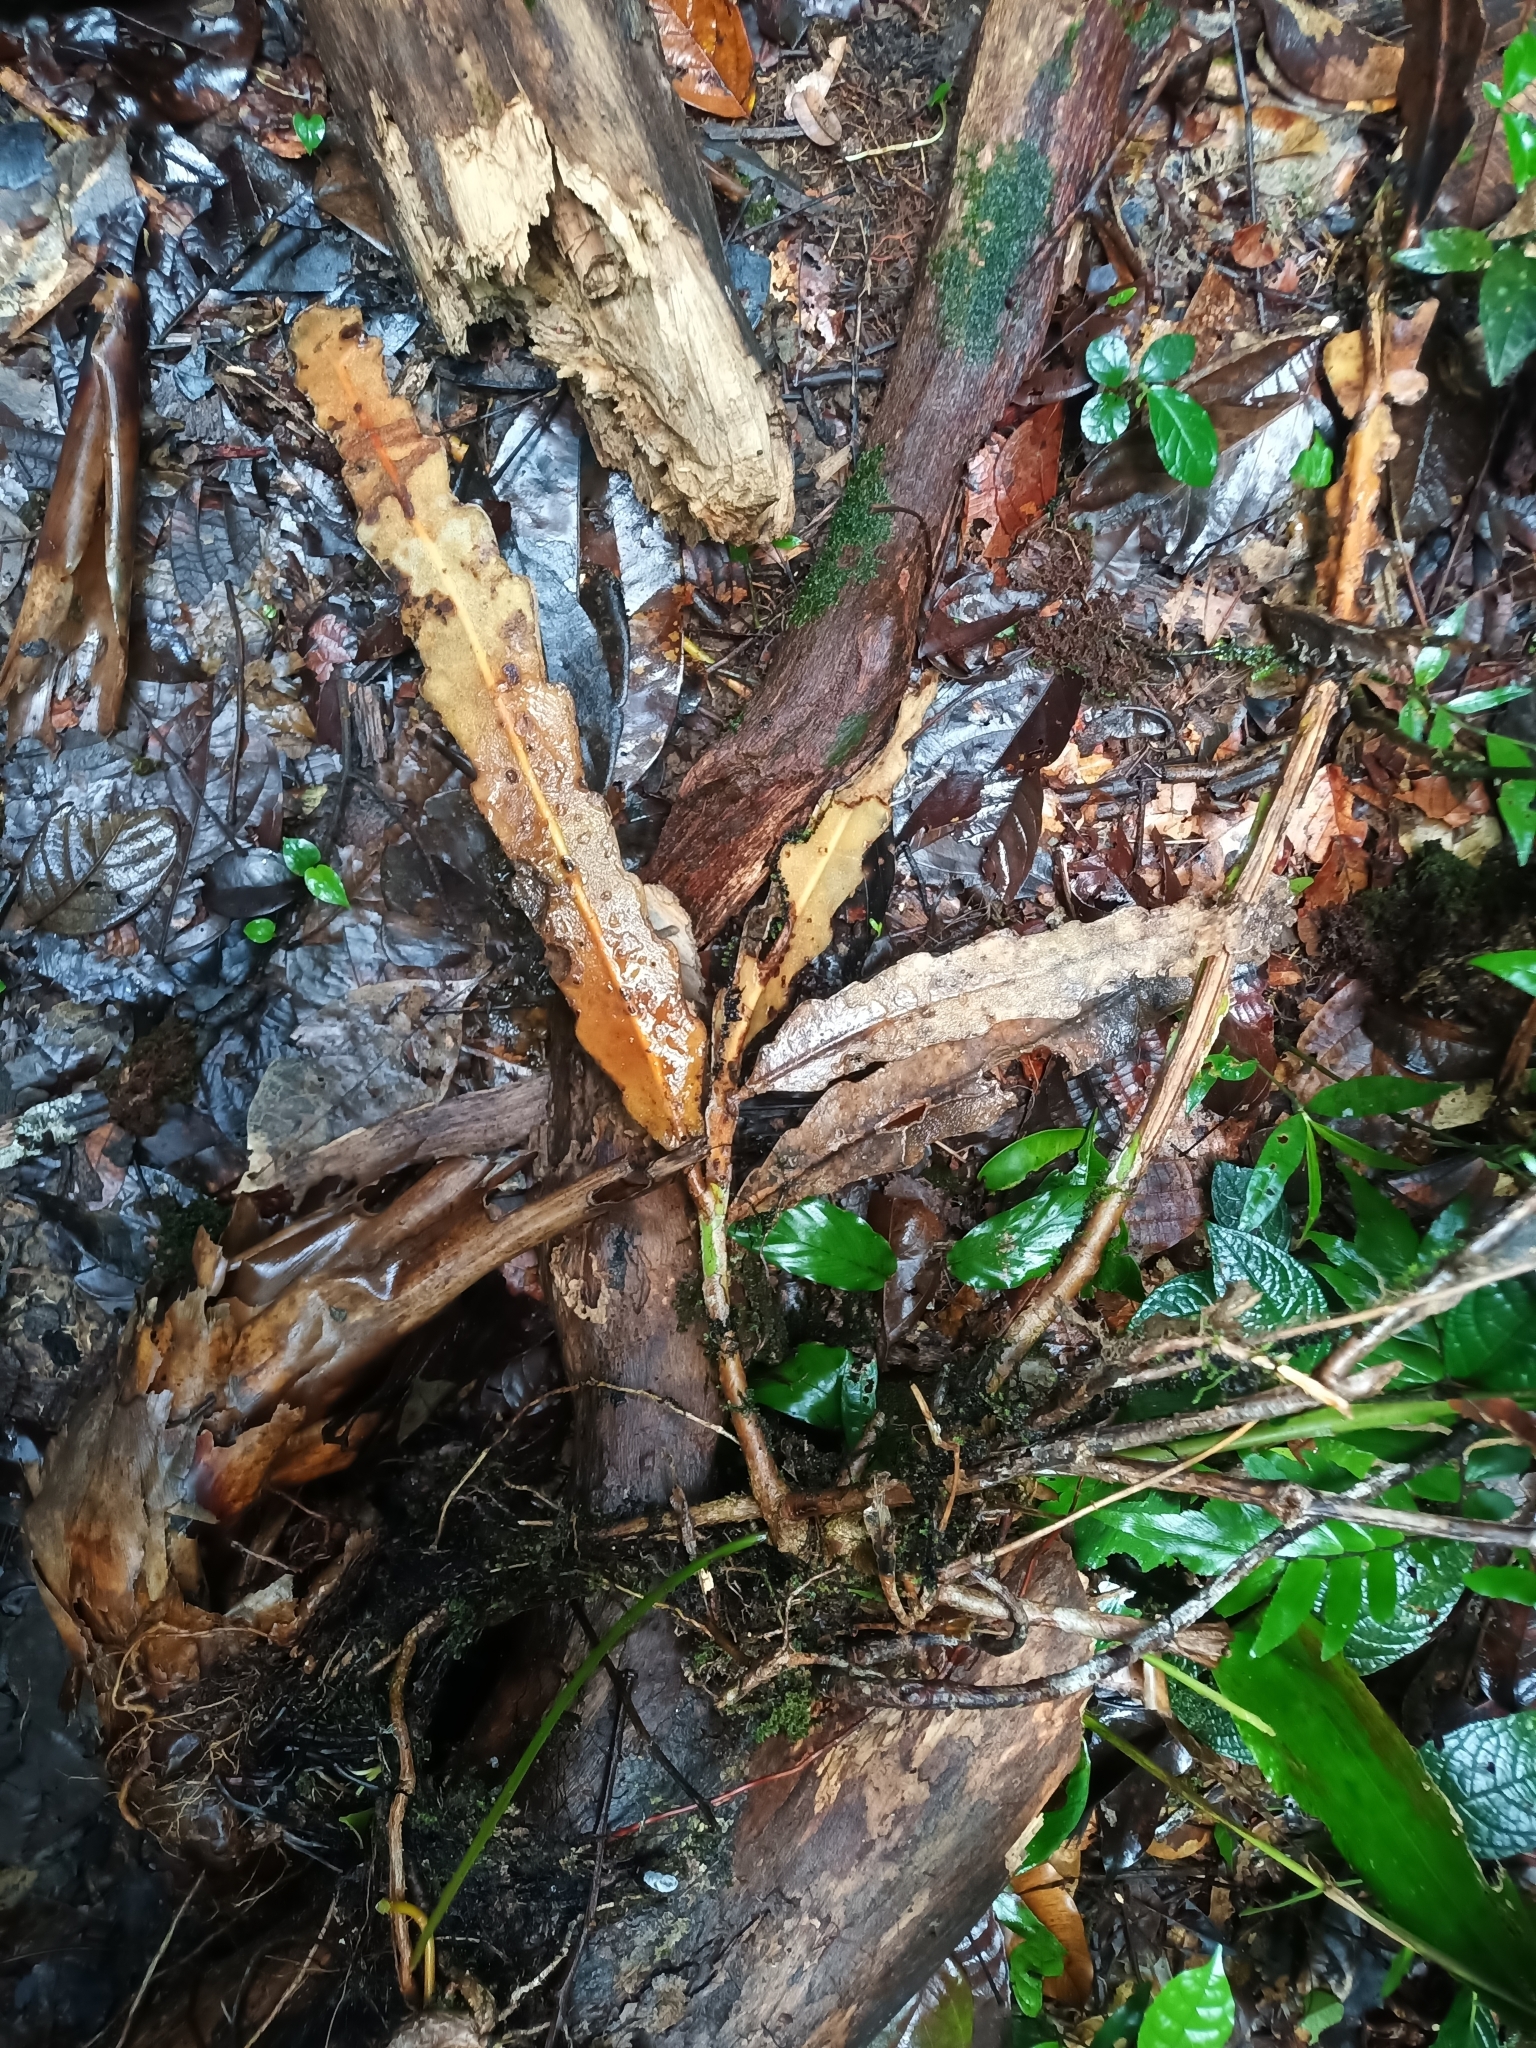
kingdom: Plantae
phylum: Tracheophyta
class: Magnoliopsida
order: Caryophyllales
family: Cactaceae
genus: Epiphyllum
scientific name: Epiphyllum phyllanthus
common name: Climbing cactus
